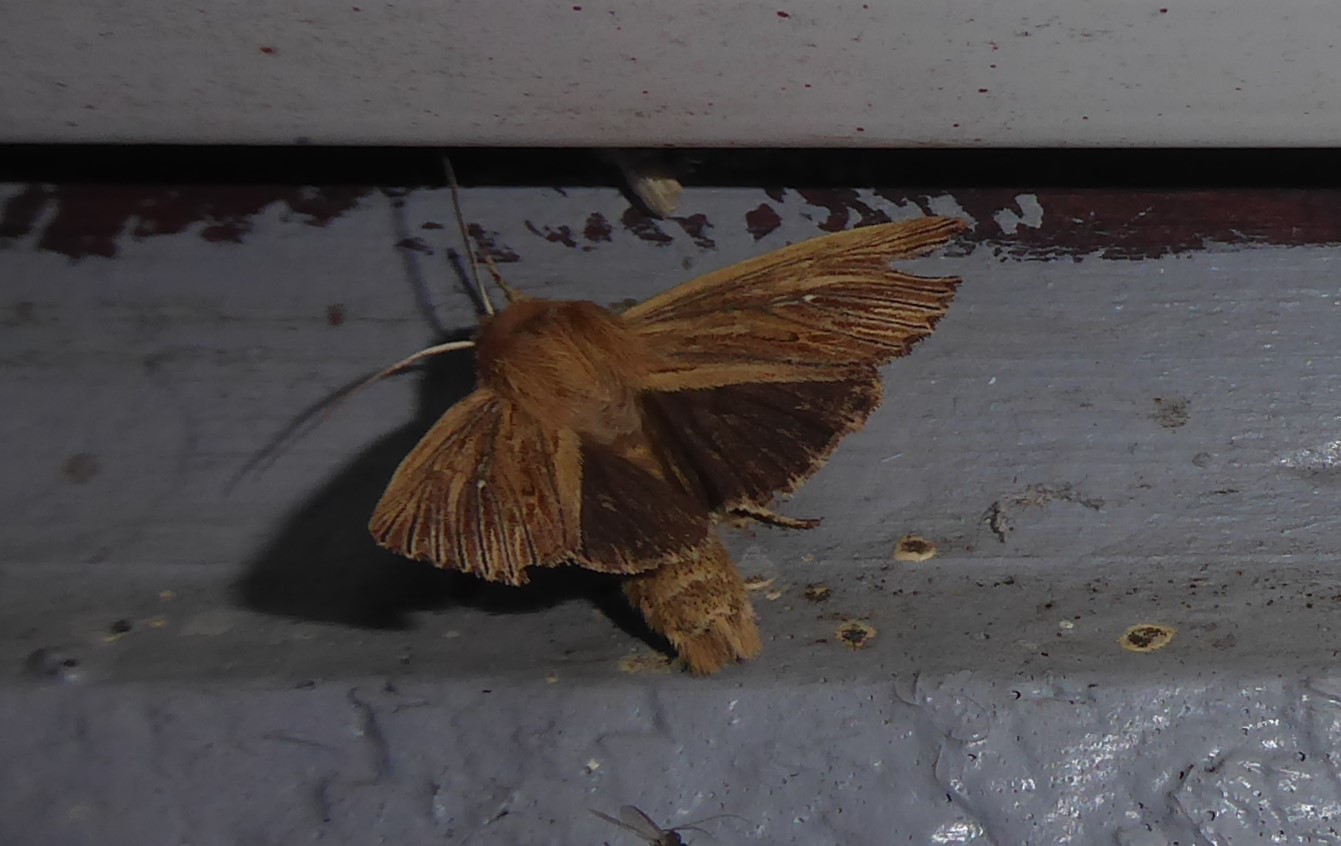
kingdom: Animalia
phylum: Arthropoda
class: Insecta
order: Lepidoptera
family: Noctuidae
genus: Ichneutica
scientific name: Ichneutica arotis
